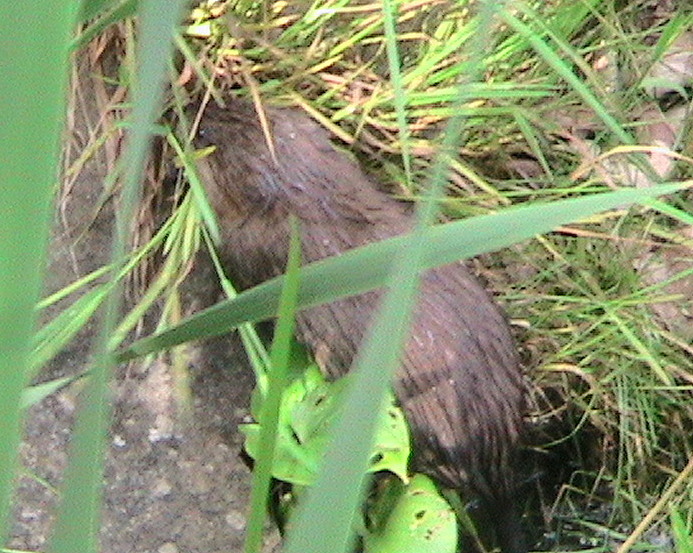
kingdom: Animalia
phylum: Chordata
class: Mammalia
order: Rodentia
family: Cricetidae
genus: Ondatra
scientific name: Ondatra zibethicus
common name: Muskrat
